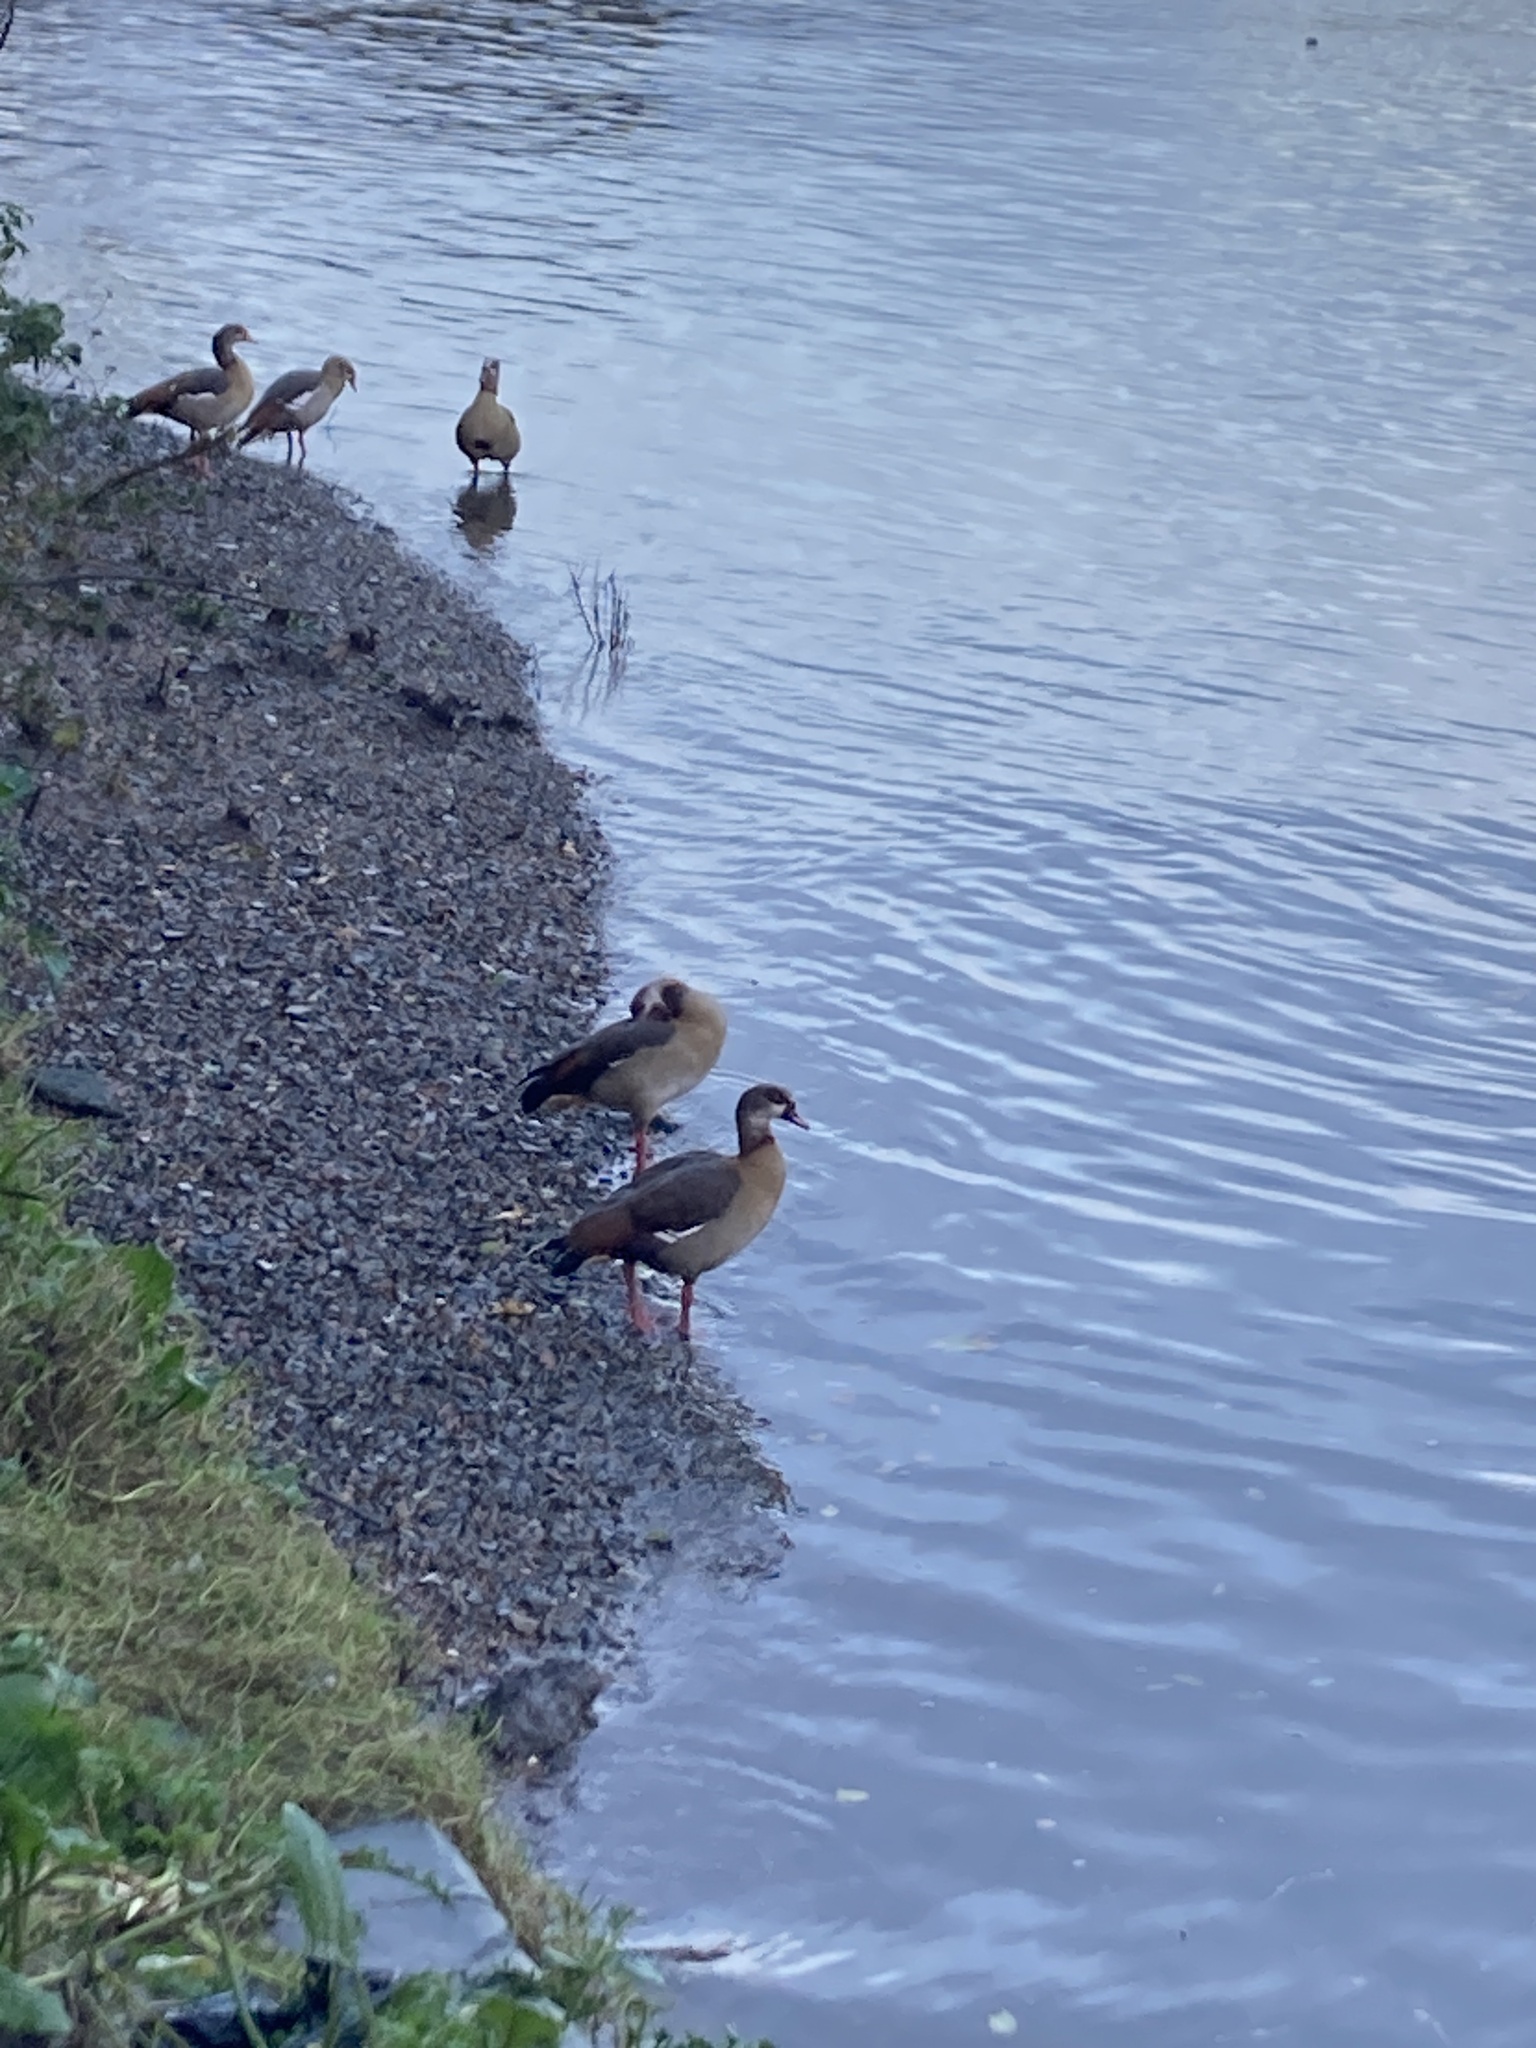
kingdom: Animalia
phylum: Chordata
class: Aves
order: Anseriformes
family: Anatidae
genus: Alopochen
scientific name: Alopochen aegyptiaca
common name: Egyptian goose
